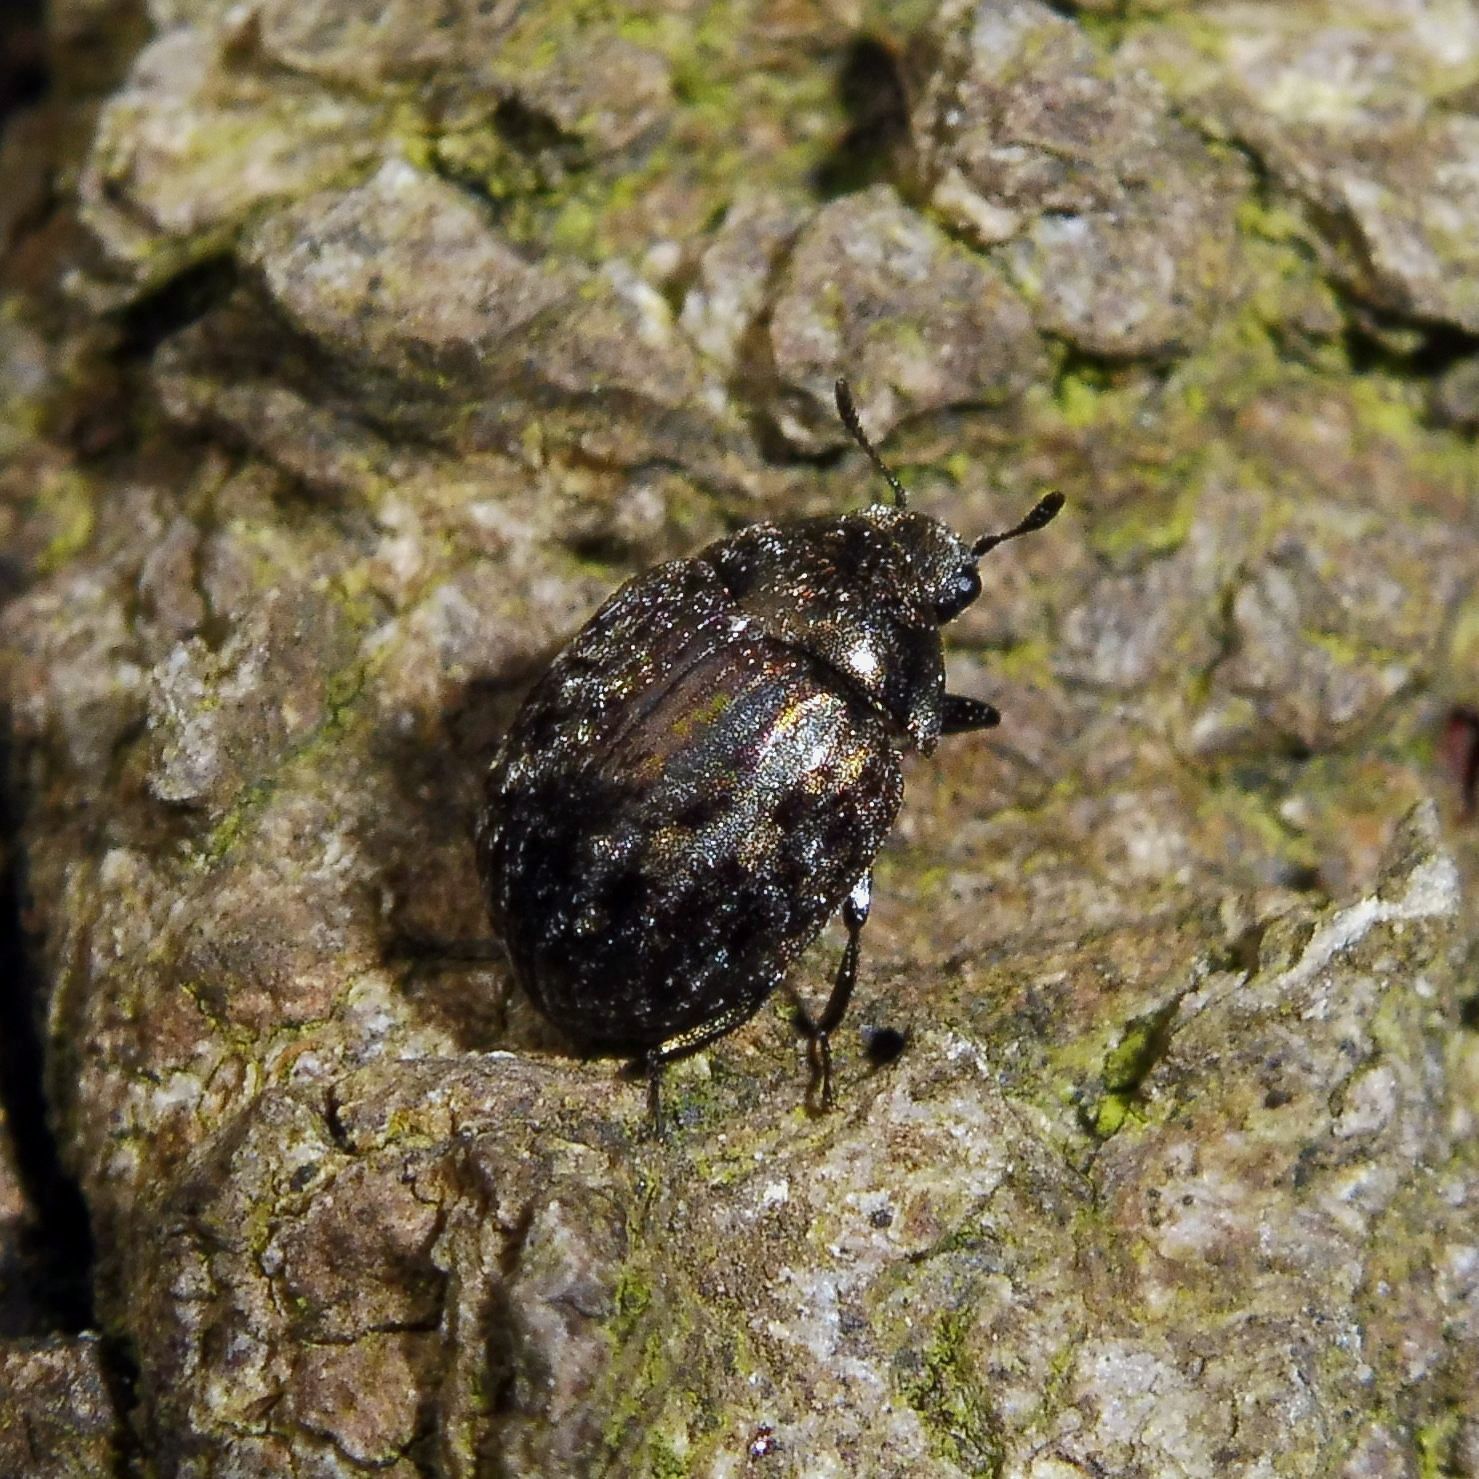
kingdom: Animalia
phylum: Arthropoda
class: Insecta
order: Coleoptera
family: Byrrhidae
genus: Cytilus
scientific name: Cytilus sericeus
